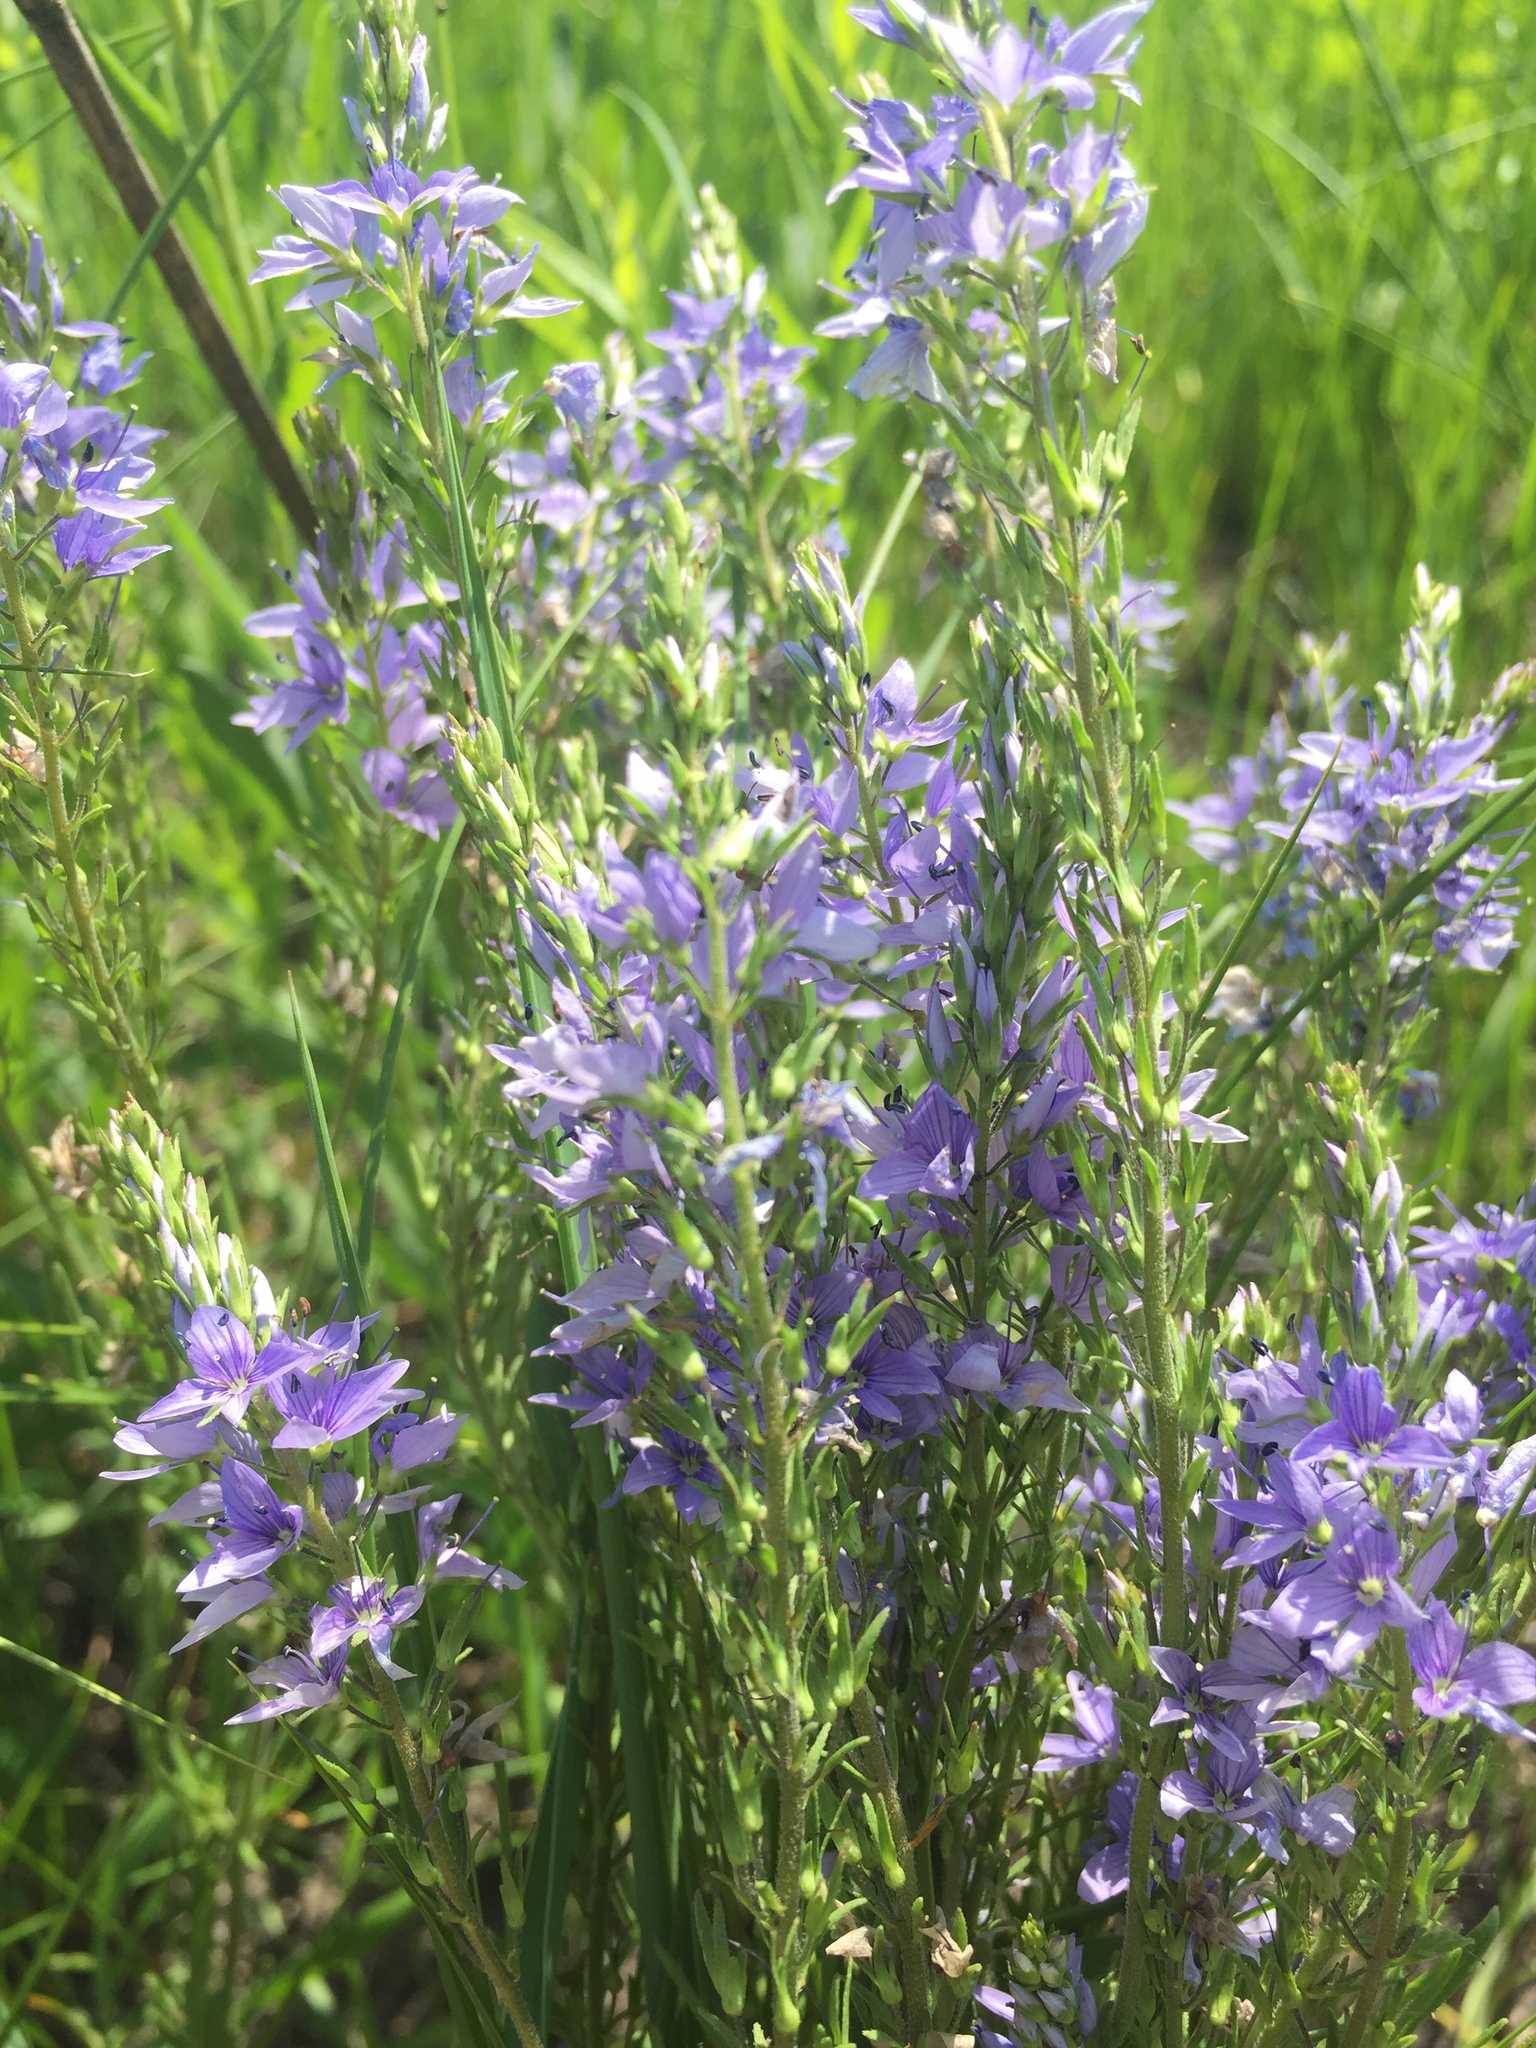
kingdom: Plantae
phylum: Tracheophyta
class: Magnoliopsida
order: Lamiales
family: Plantaginaceae
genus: Veronica
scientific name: Veronica austriaca
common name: Large speedwell
